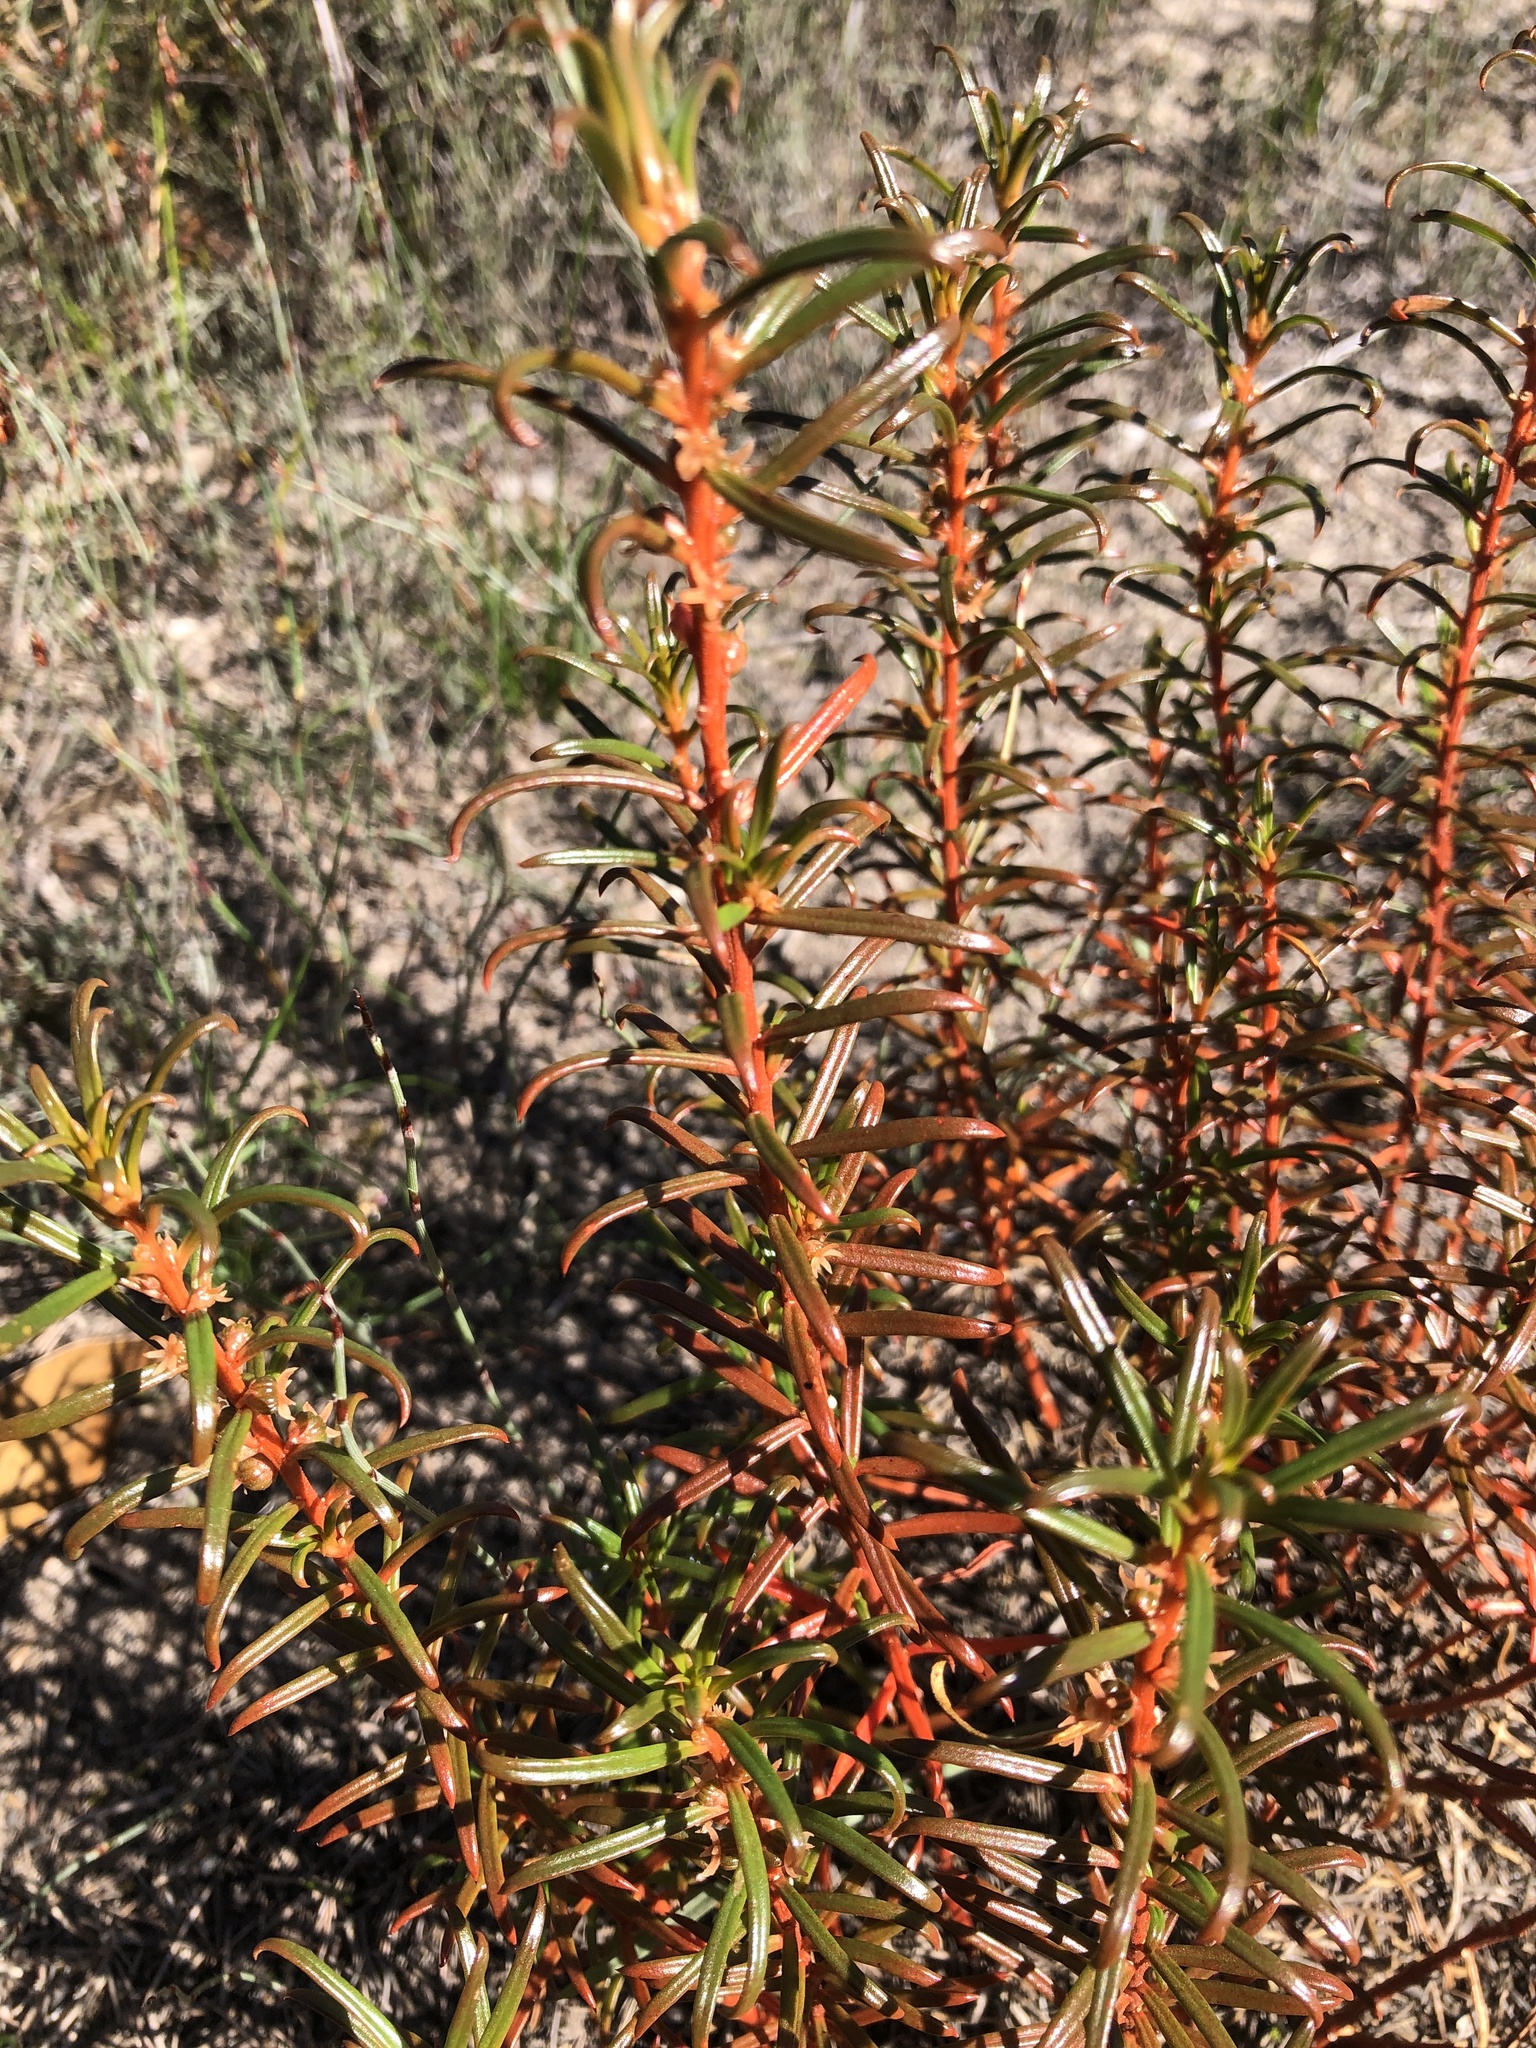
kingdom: Plantae
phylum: Tracheophyta
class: Magnoliopsida
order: Brassicales
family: Gyrostemonaceae
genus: Gyrostemon
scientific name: Gyrostemon australasicus
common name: Wheelfruit
